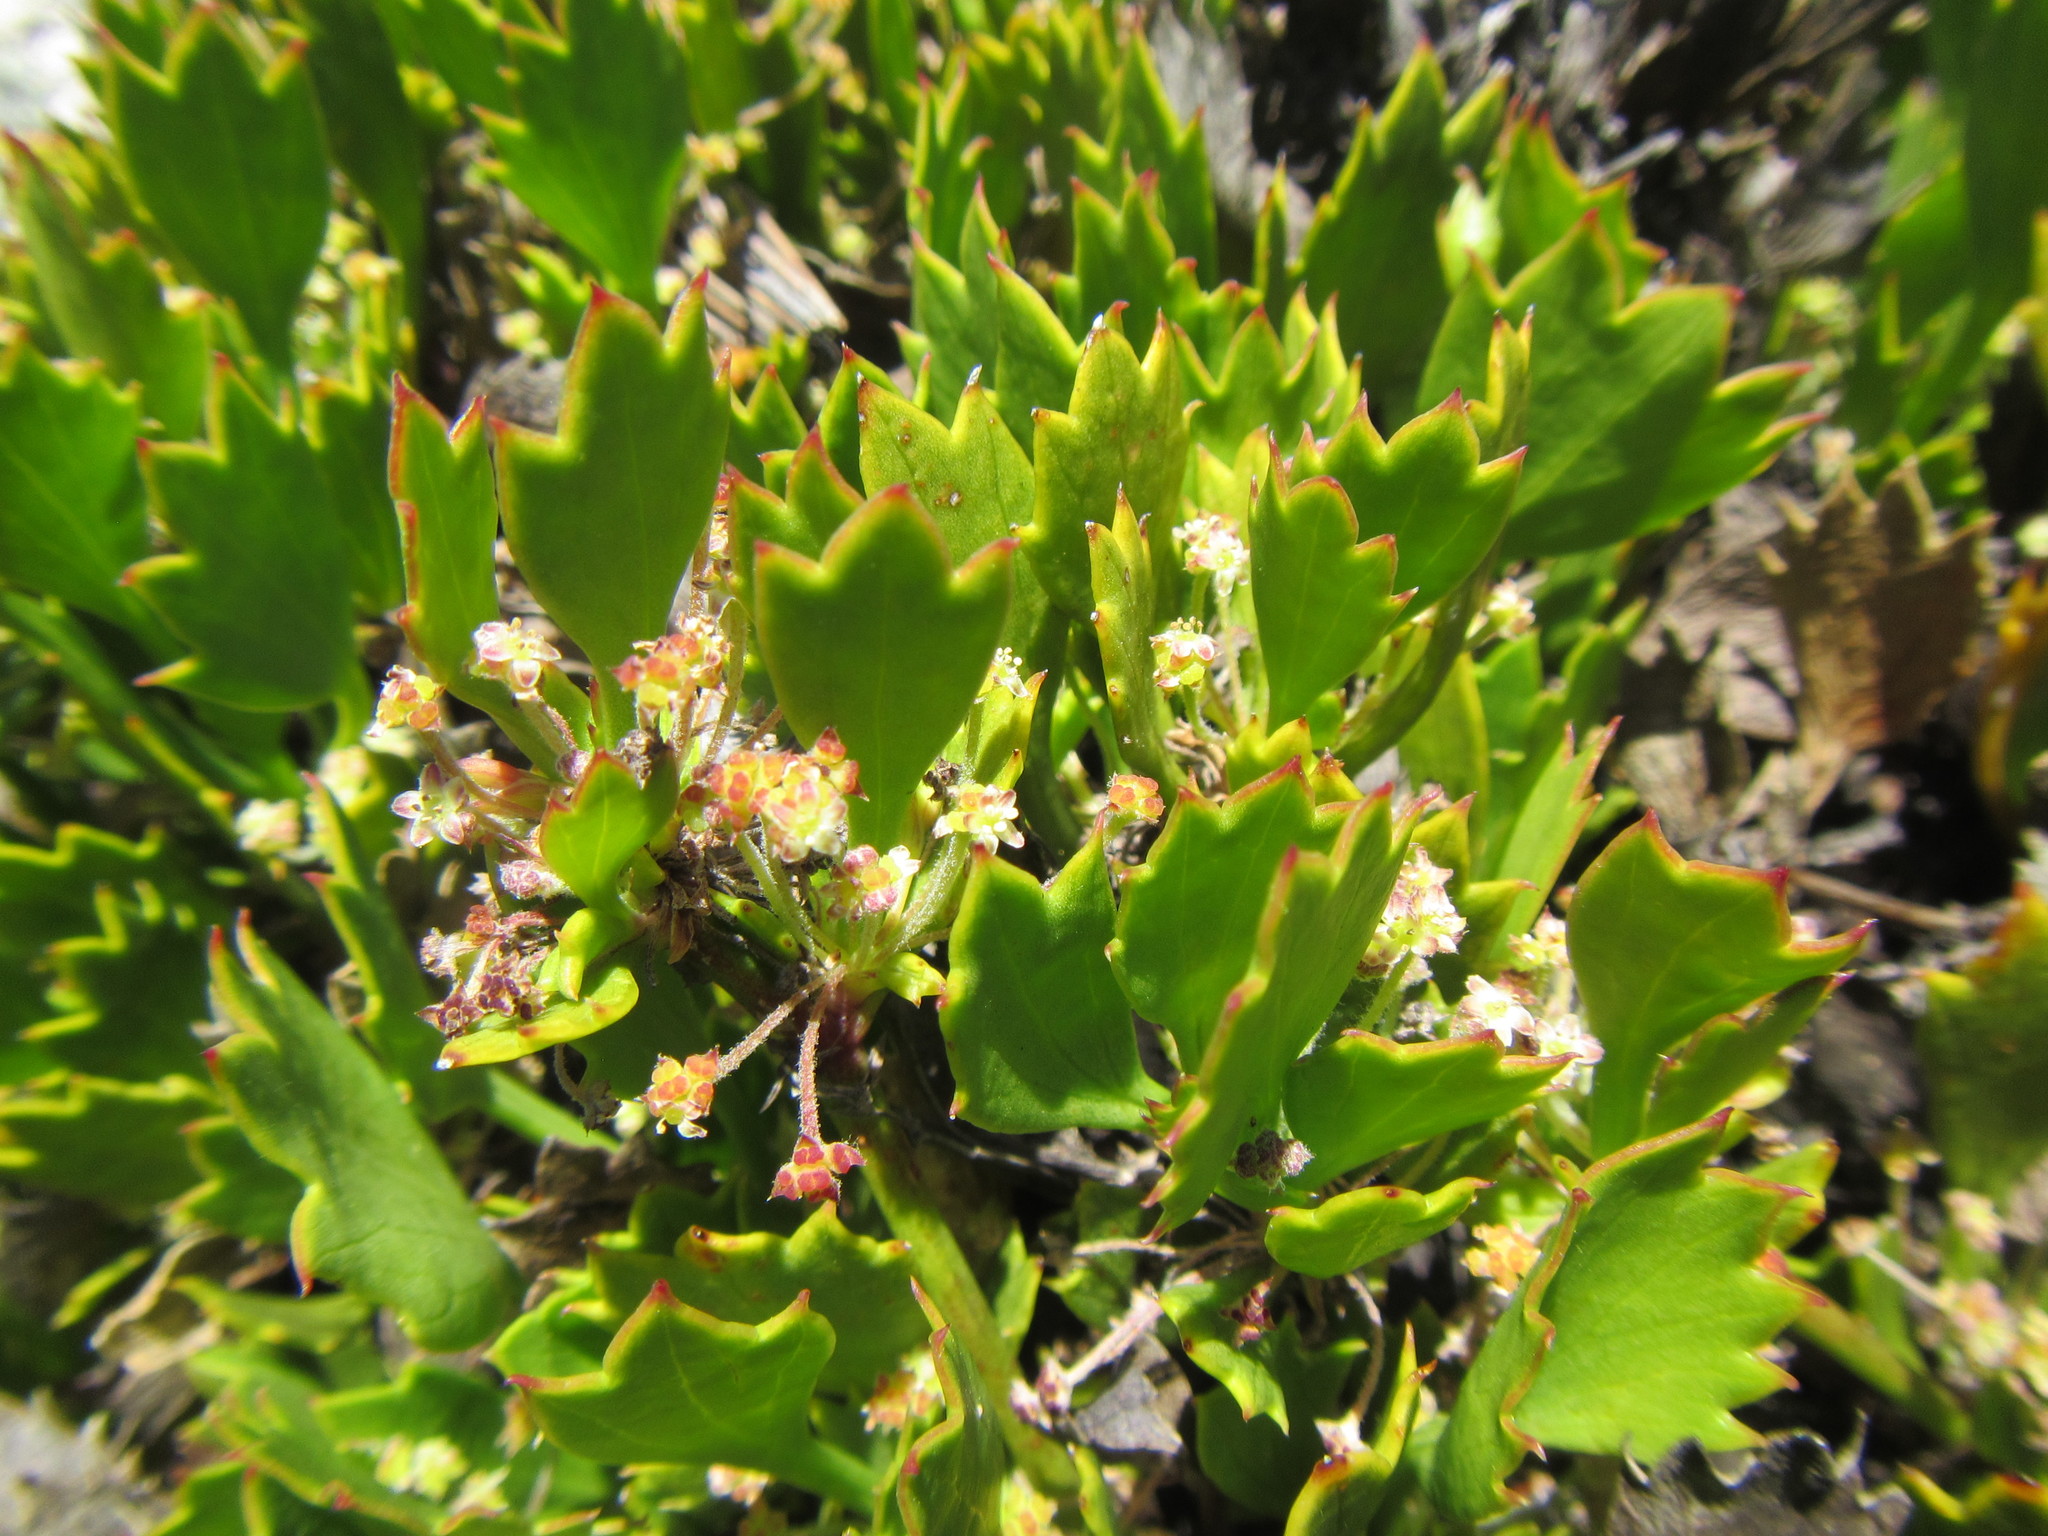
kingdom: Plantae
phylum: Tracheophyta
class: Magnoliopsida
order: Apiales
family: Apiaceae
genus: Centella
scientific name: Centella triloba
